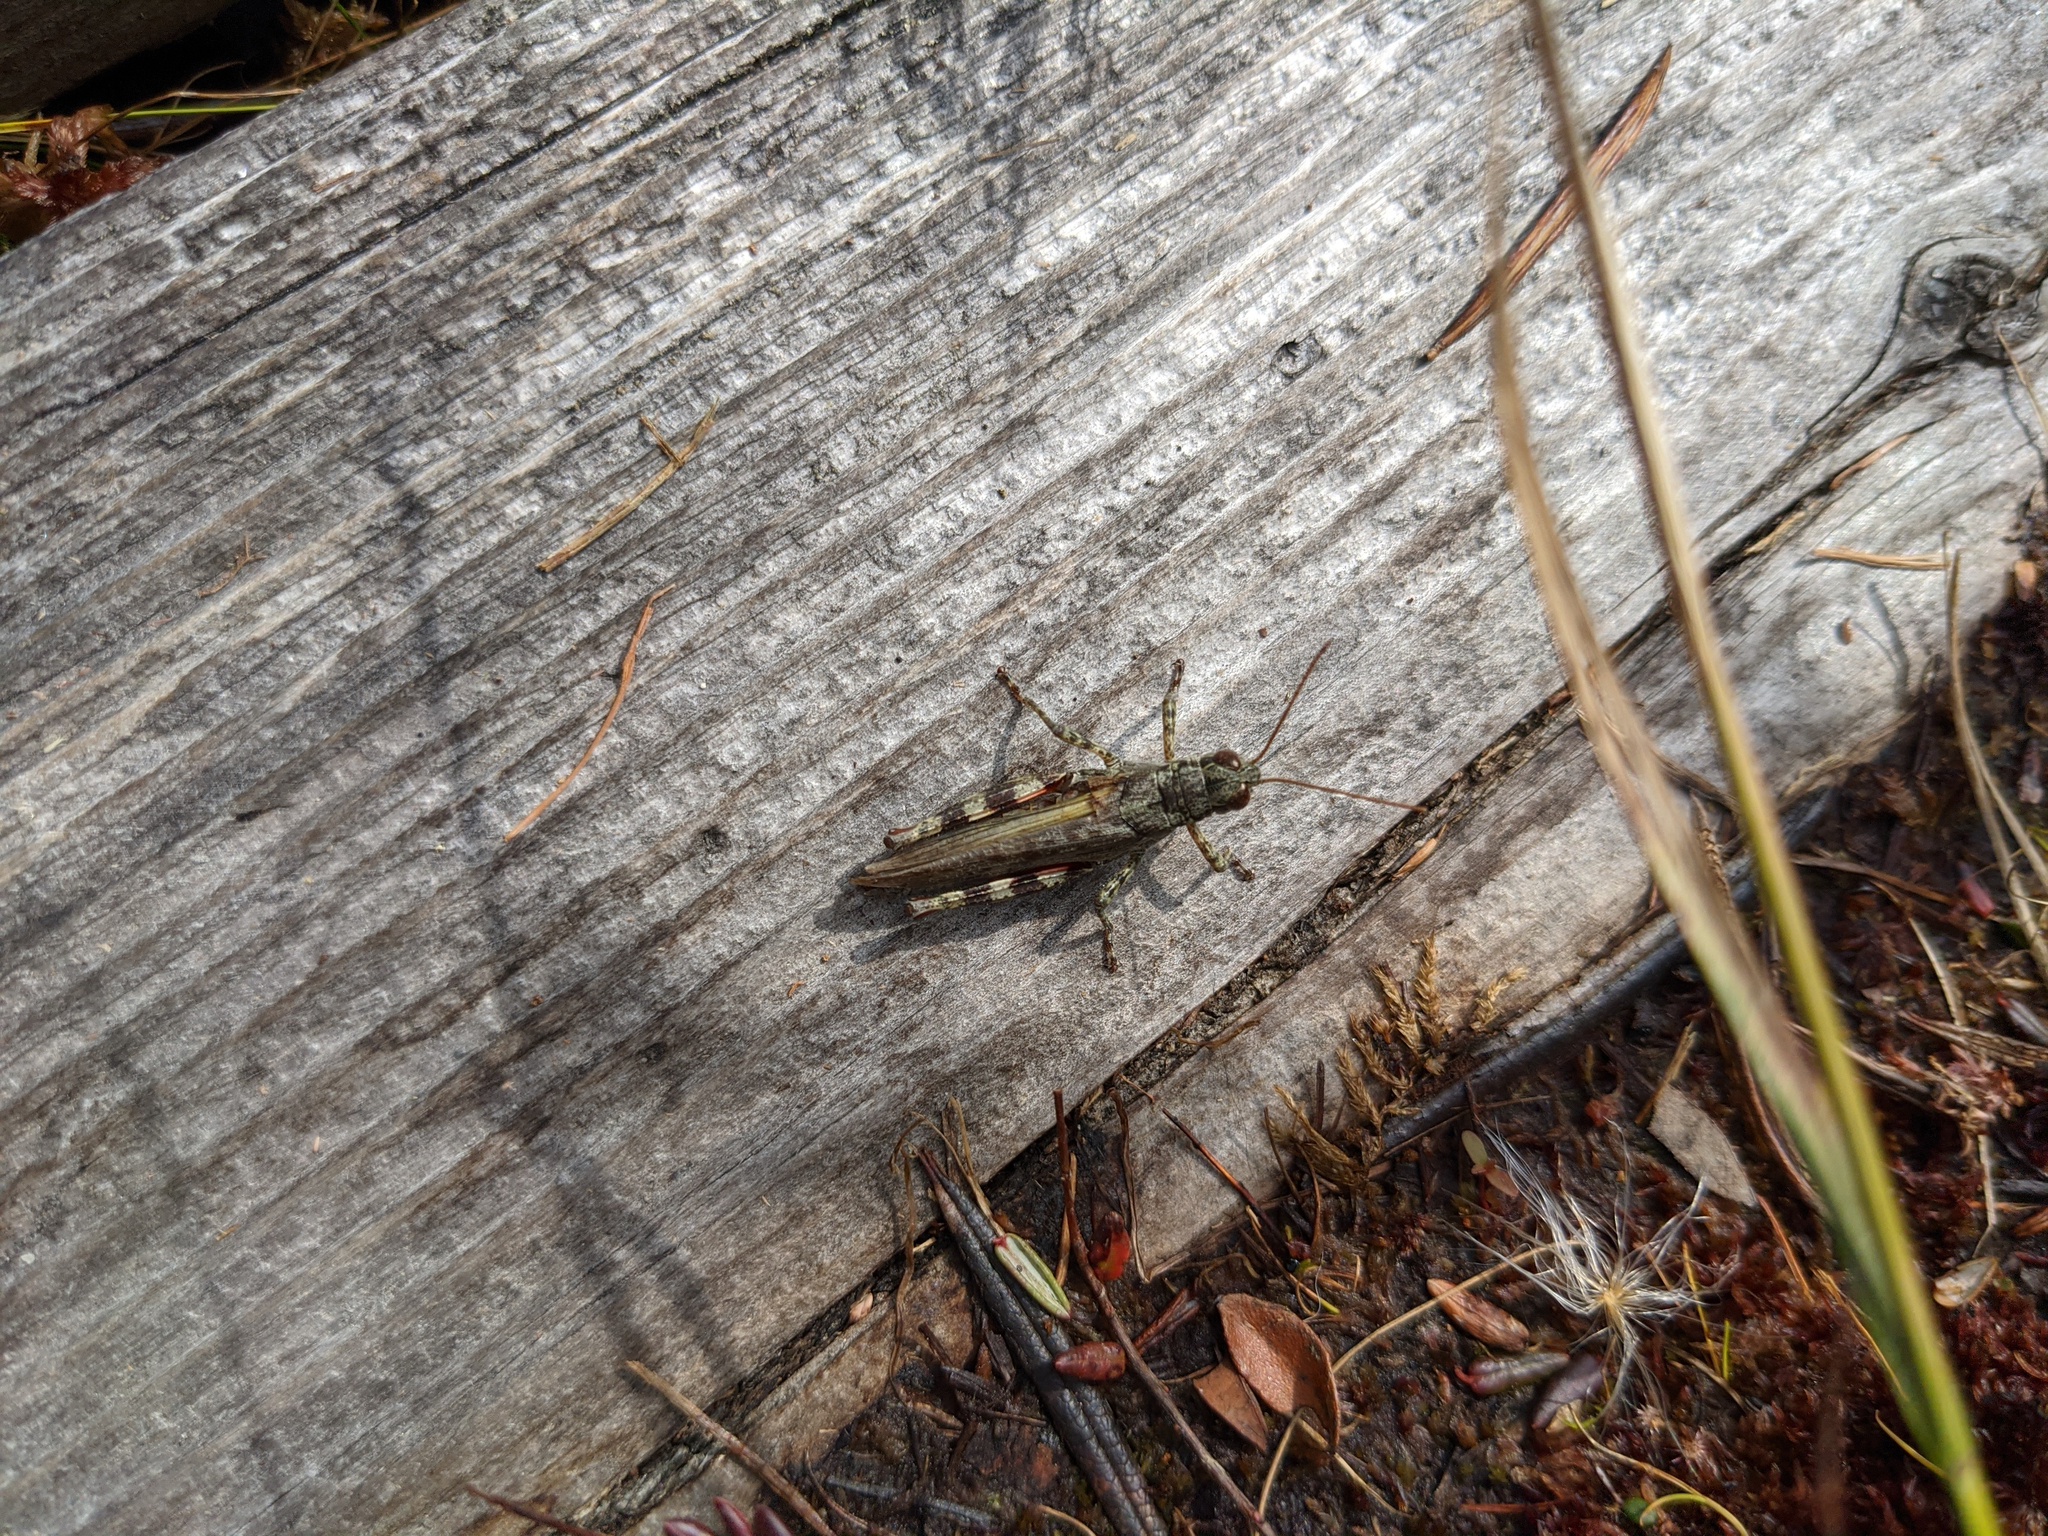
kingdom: Animalia
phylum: Arthropoda
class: Insecta
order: Orthoptera
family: Acrididae
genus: Melanoplus
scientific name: Melanoplus punctulatus
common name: Pine-tree spur-throat grasshopper
